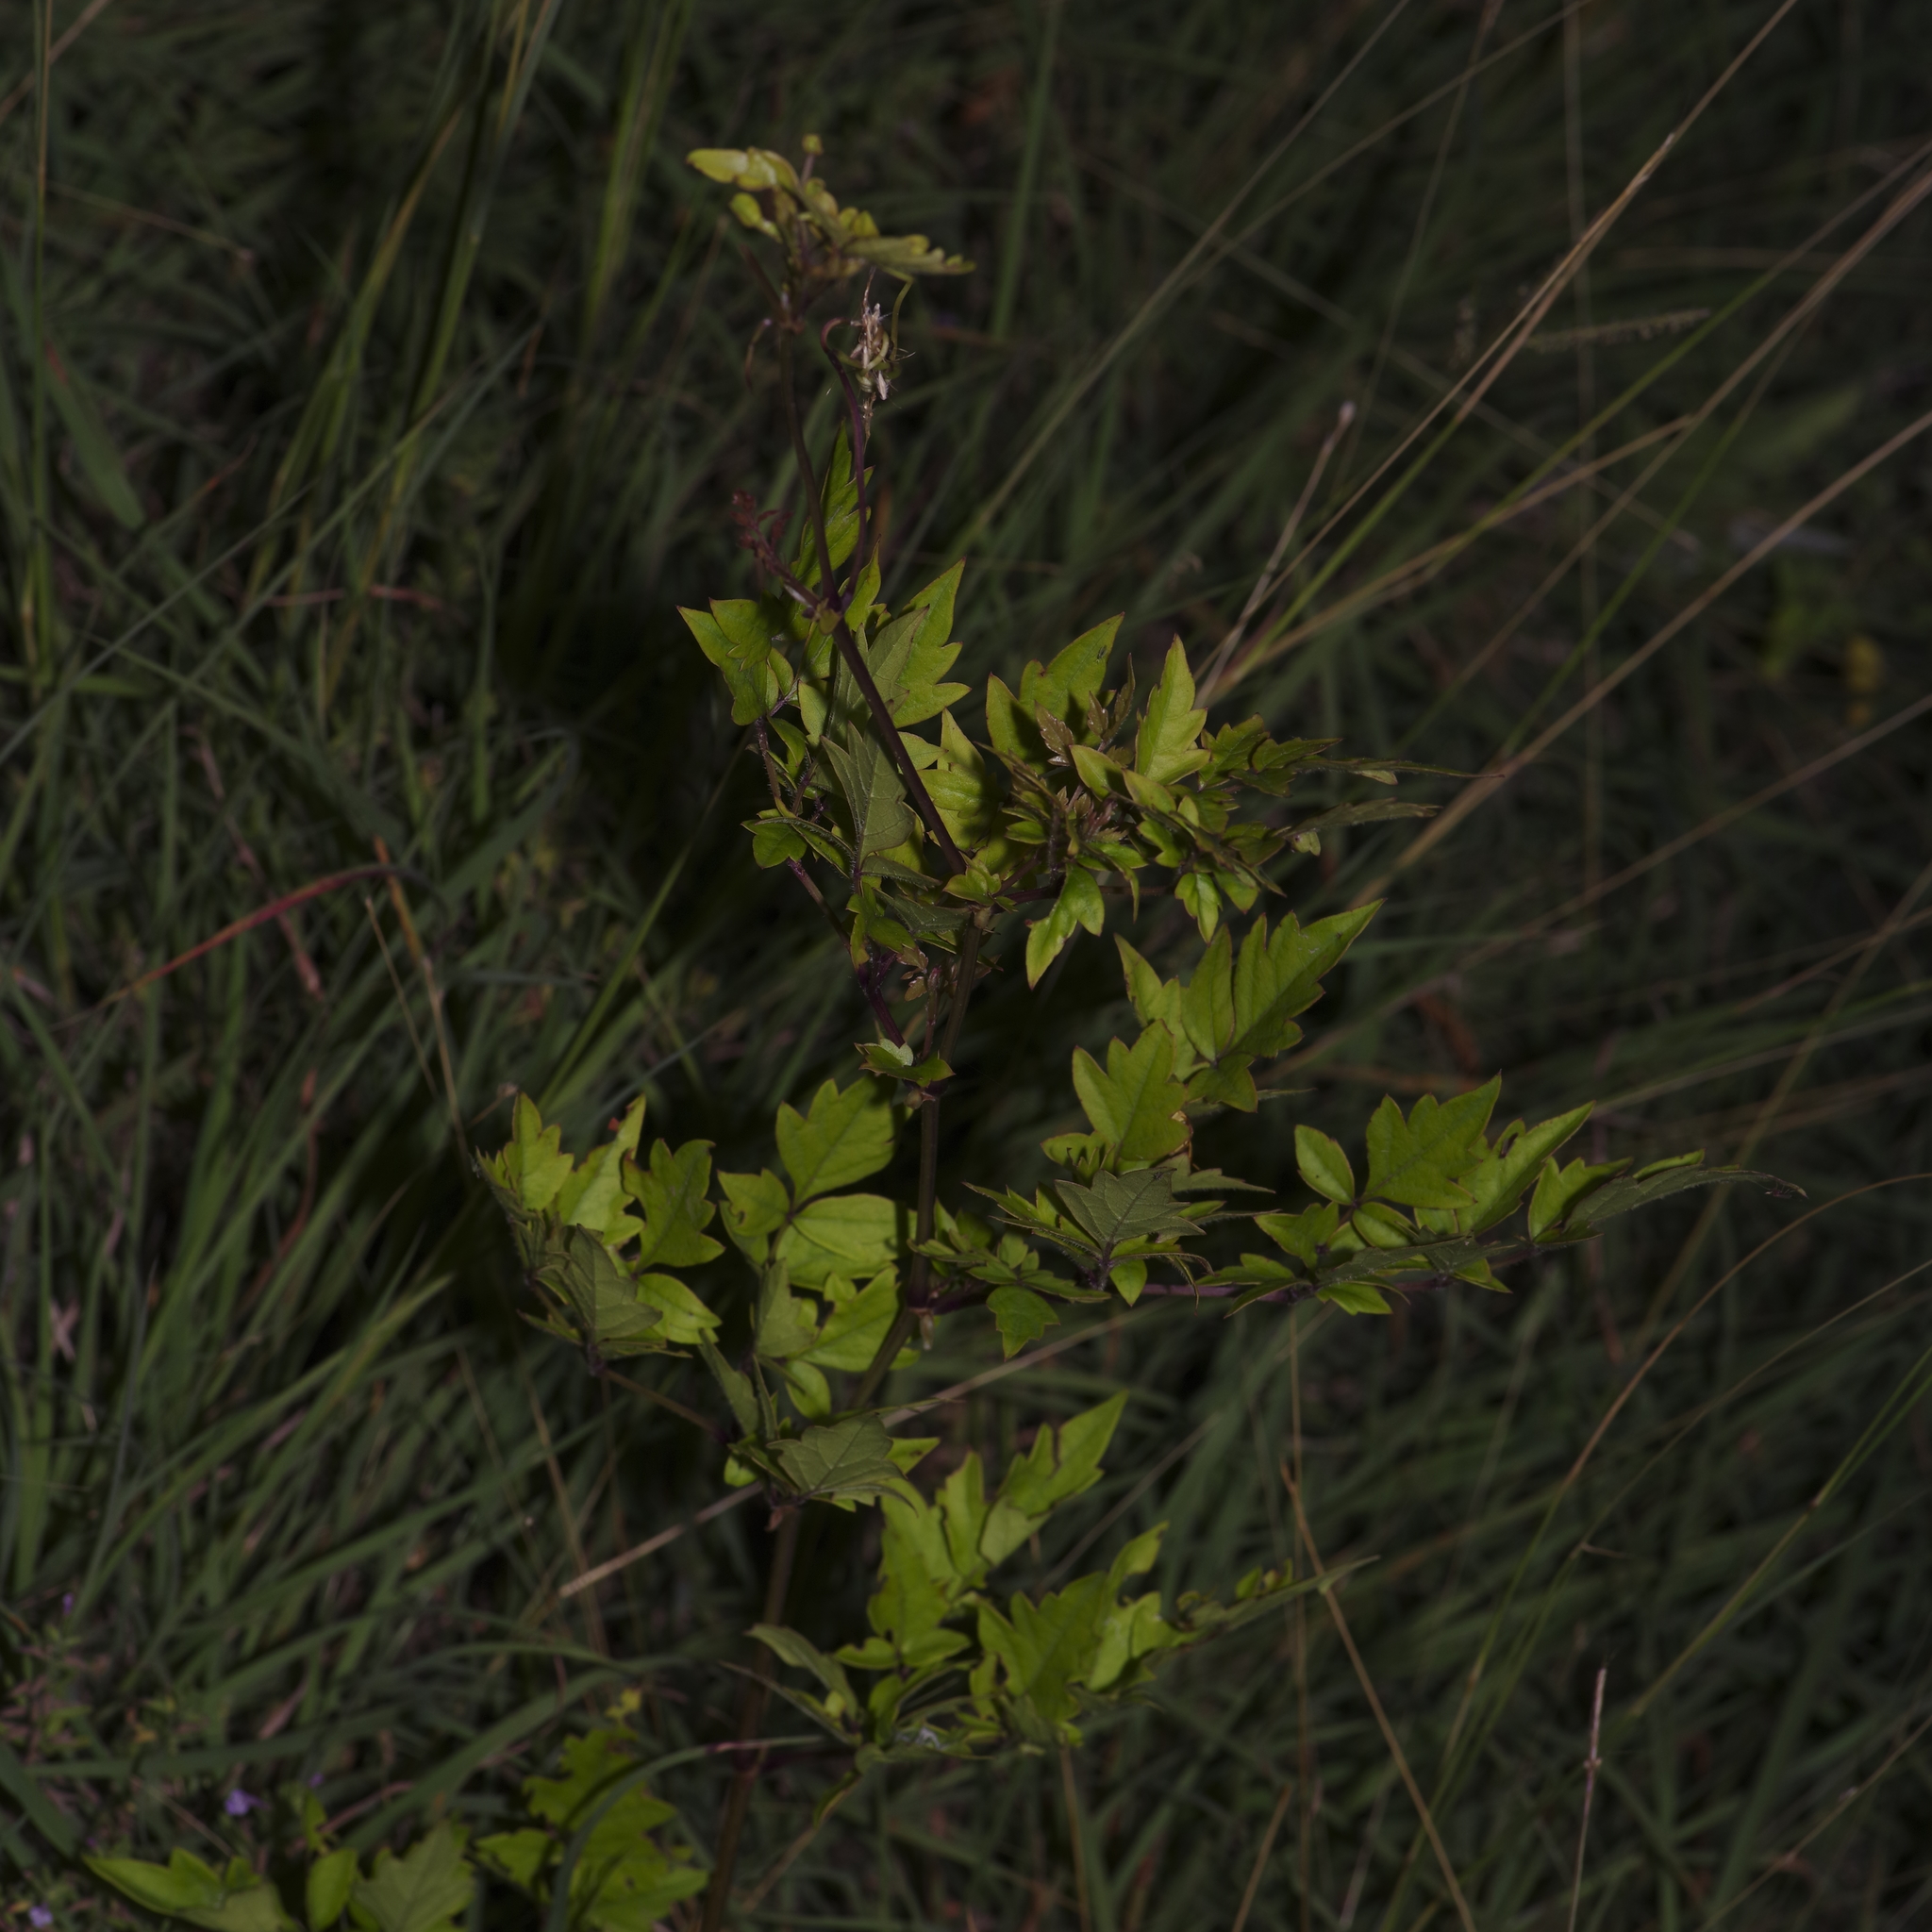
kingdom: Plantae
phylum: Tracheophyta
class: Magnoliopsida
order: Vitales
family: Vitaceae
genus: Nekemias
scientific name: Nekemias arborea
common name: Peppervine
